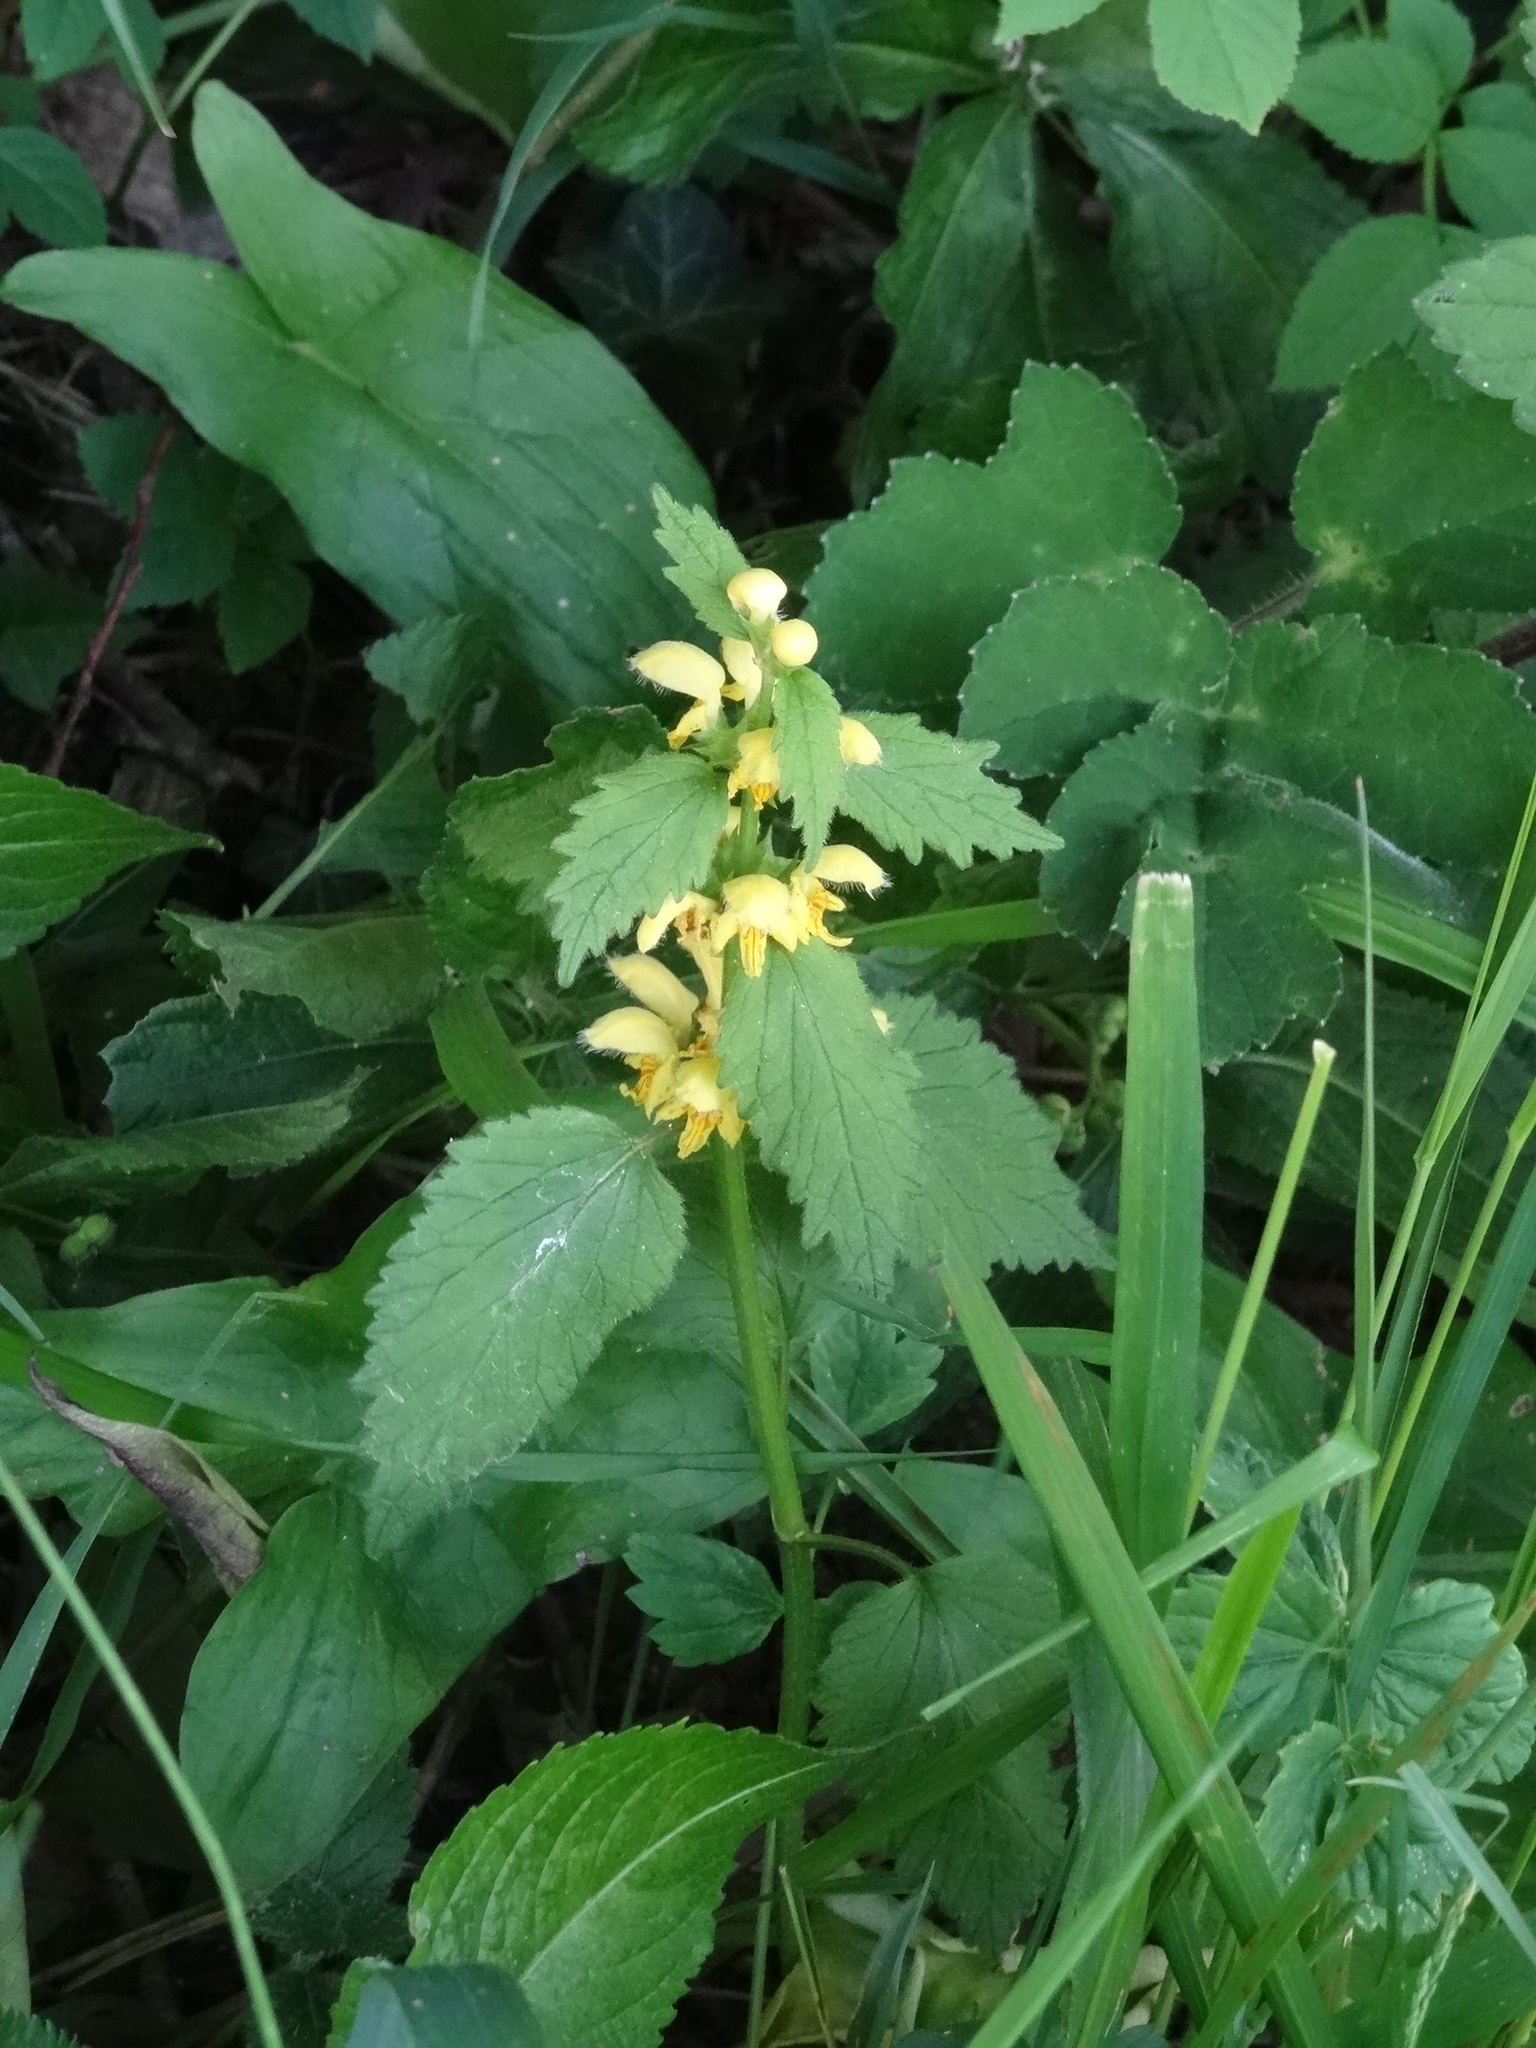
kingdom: Plantae
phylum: Tracheophyta
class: Magnoliopsida
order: Lamiales
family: Lamiaceae
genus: Lamium
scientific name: Lamium galeobdolon
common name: Yellow archangel
